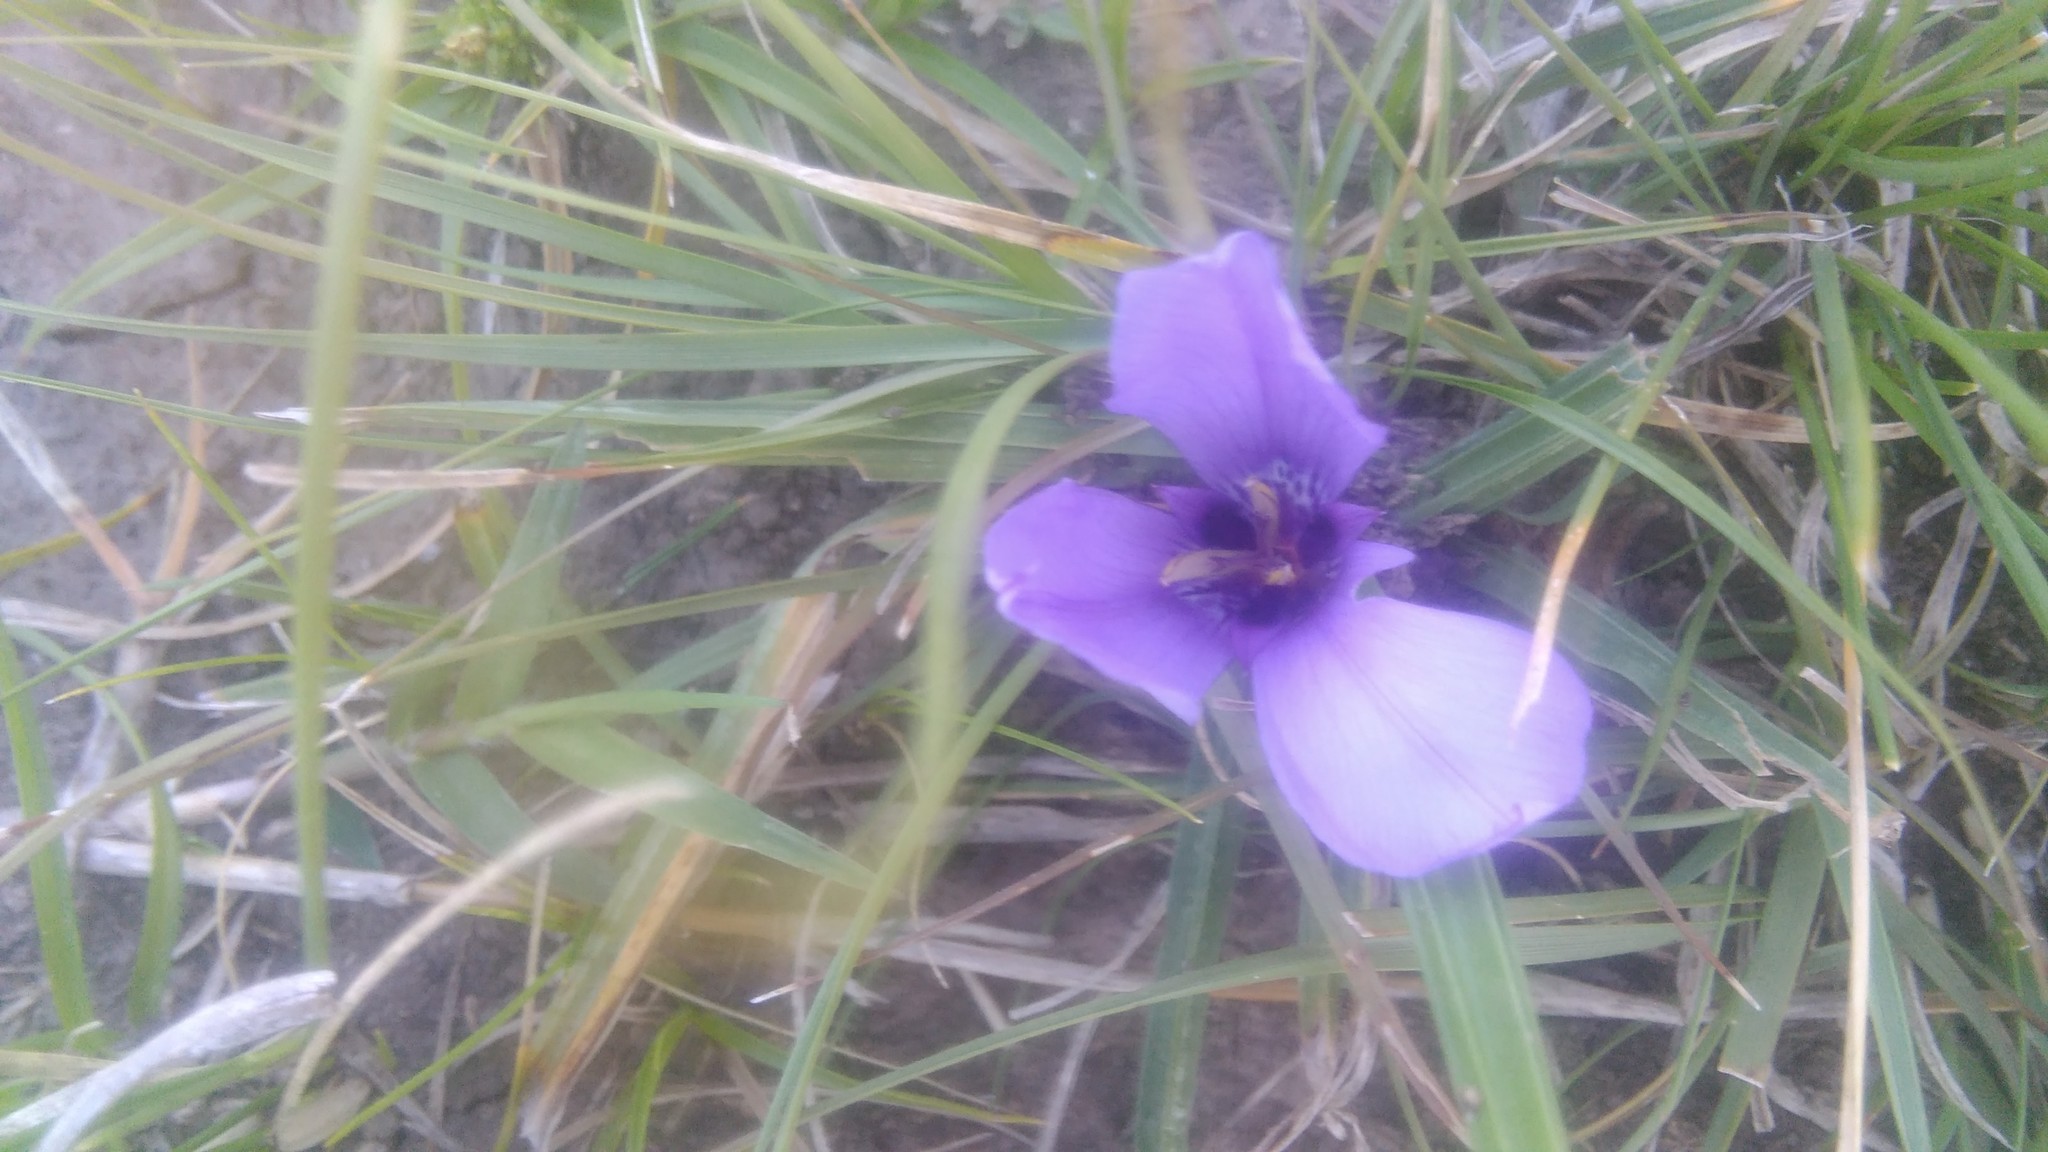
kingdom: Plantae
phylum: Tracheophyta
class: Liliopsida
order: Asparagales
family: Iridaceae
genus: Herbertia
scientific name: Herbertia lahue
